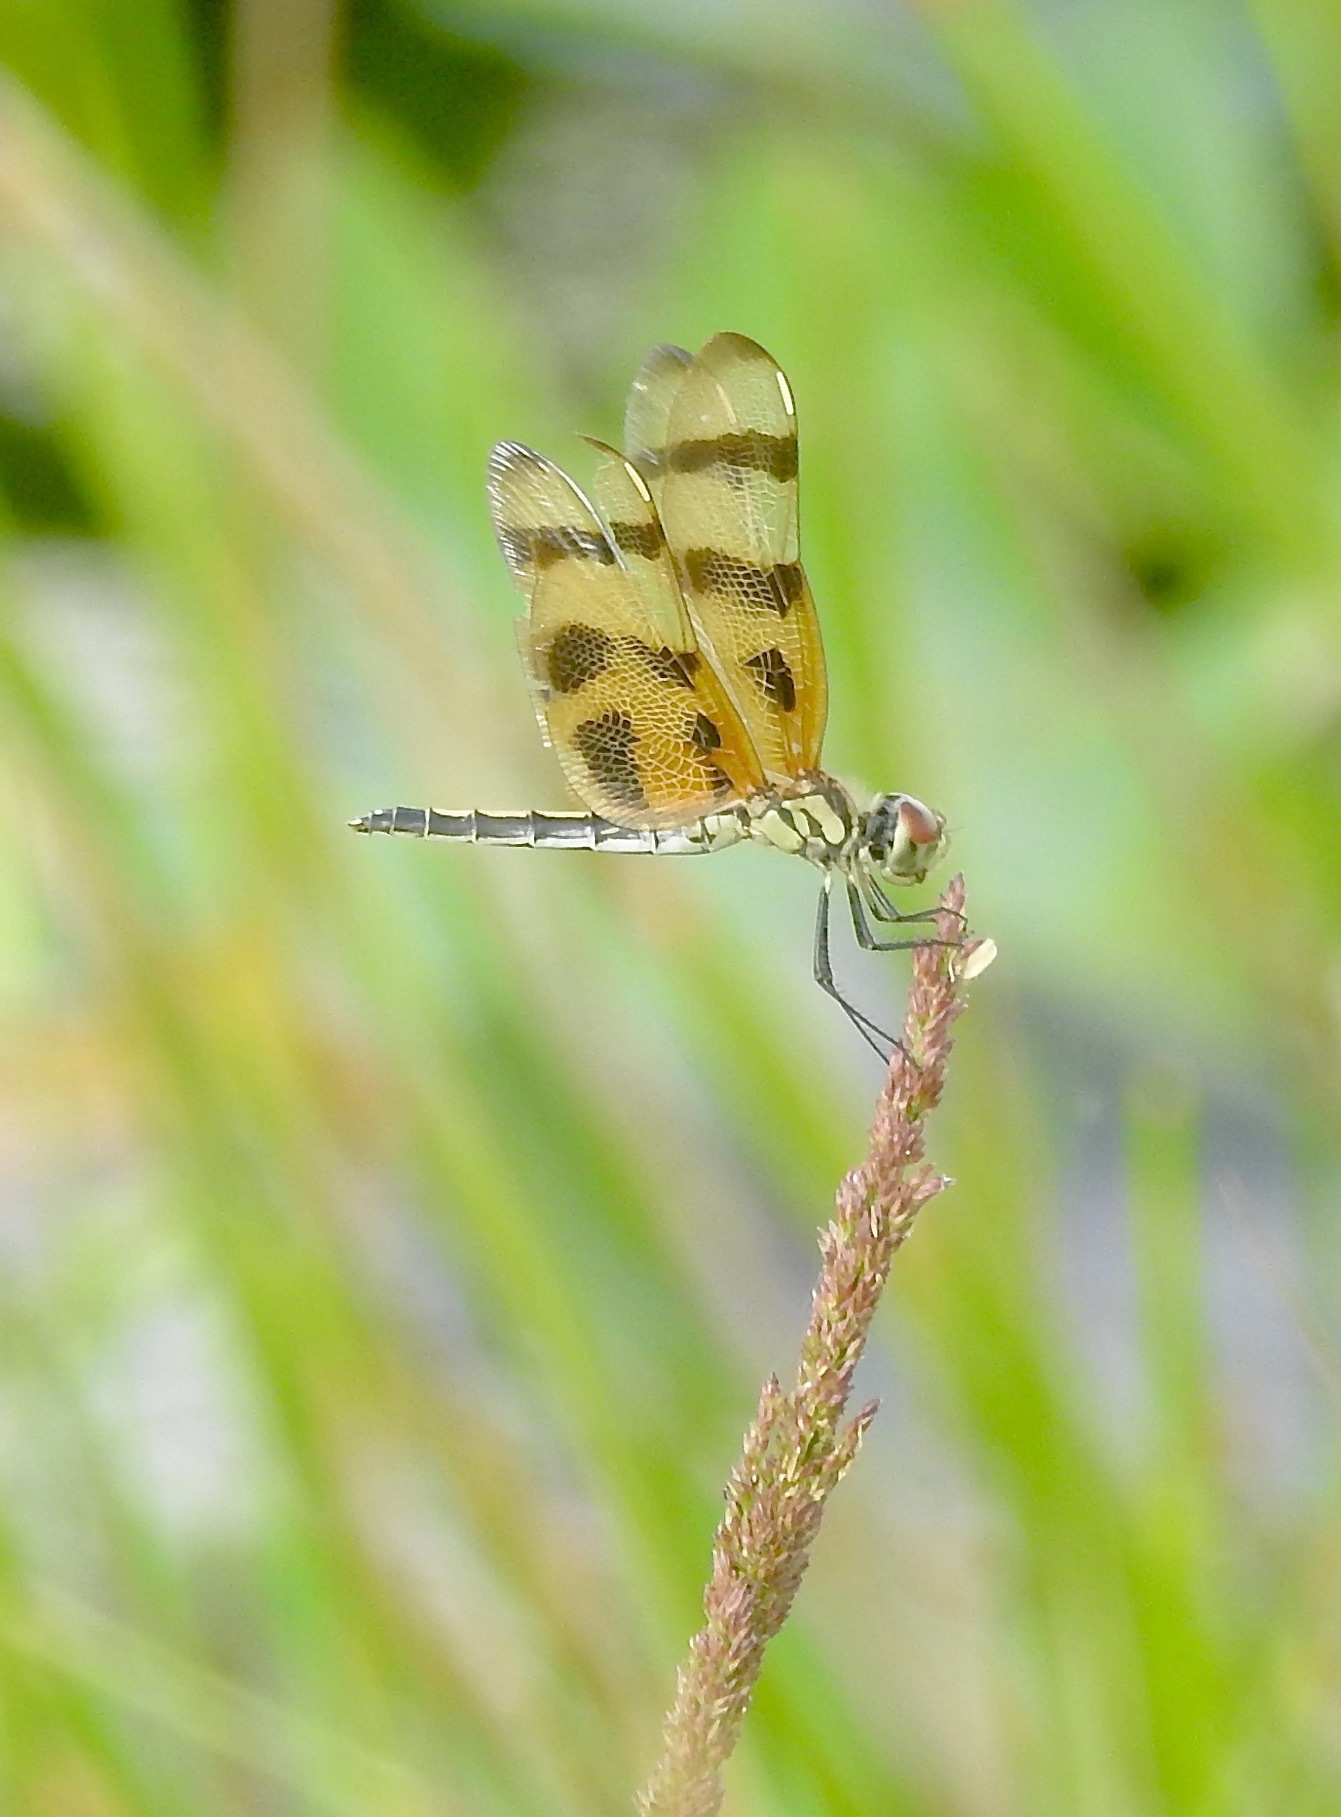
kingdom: Animalia
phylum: Arthropoda
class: Insecta
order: Odonata
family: Libellulidae
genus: Celithemis
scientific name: Celithemis eponina
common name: Halloween pennant
